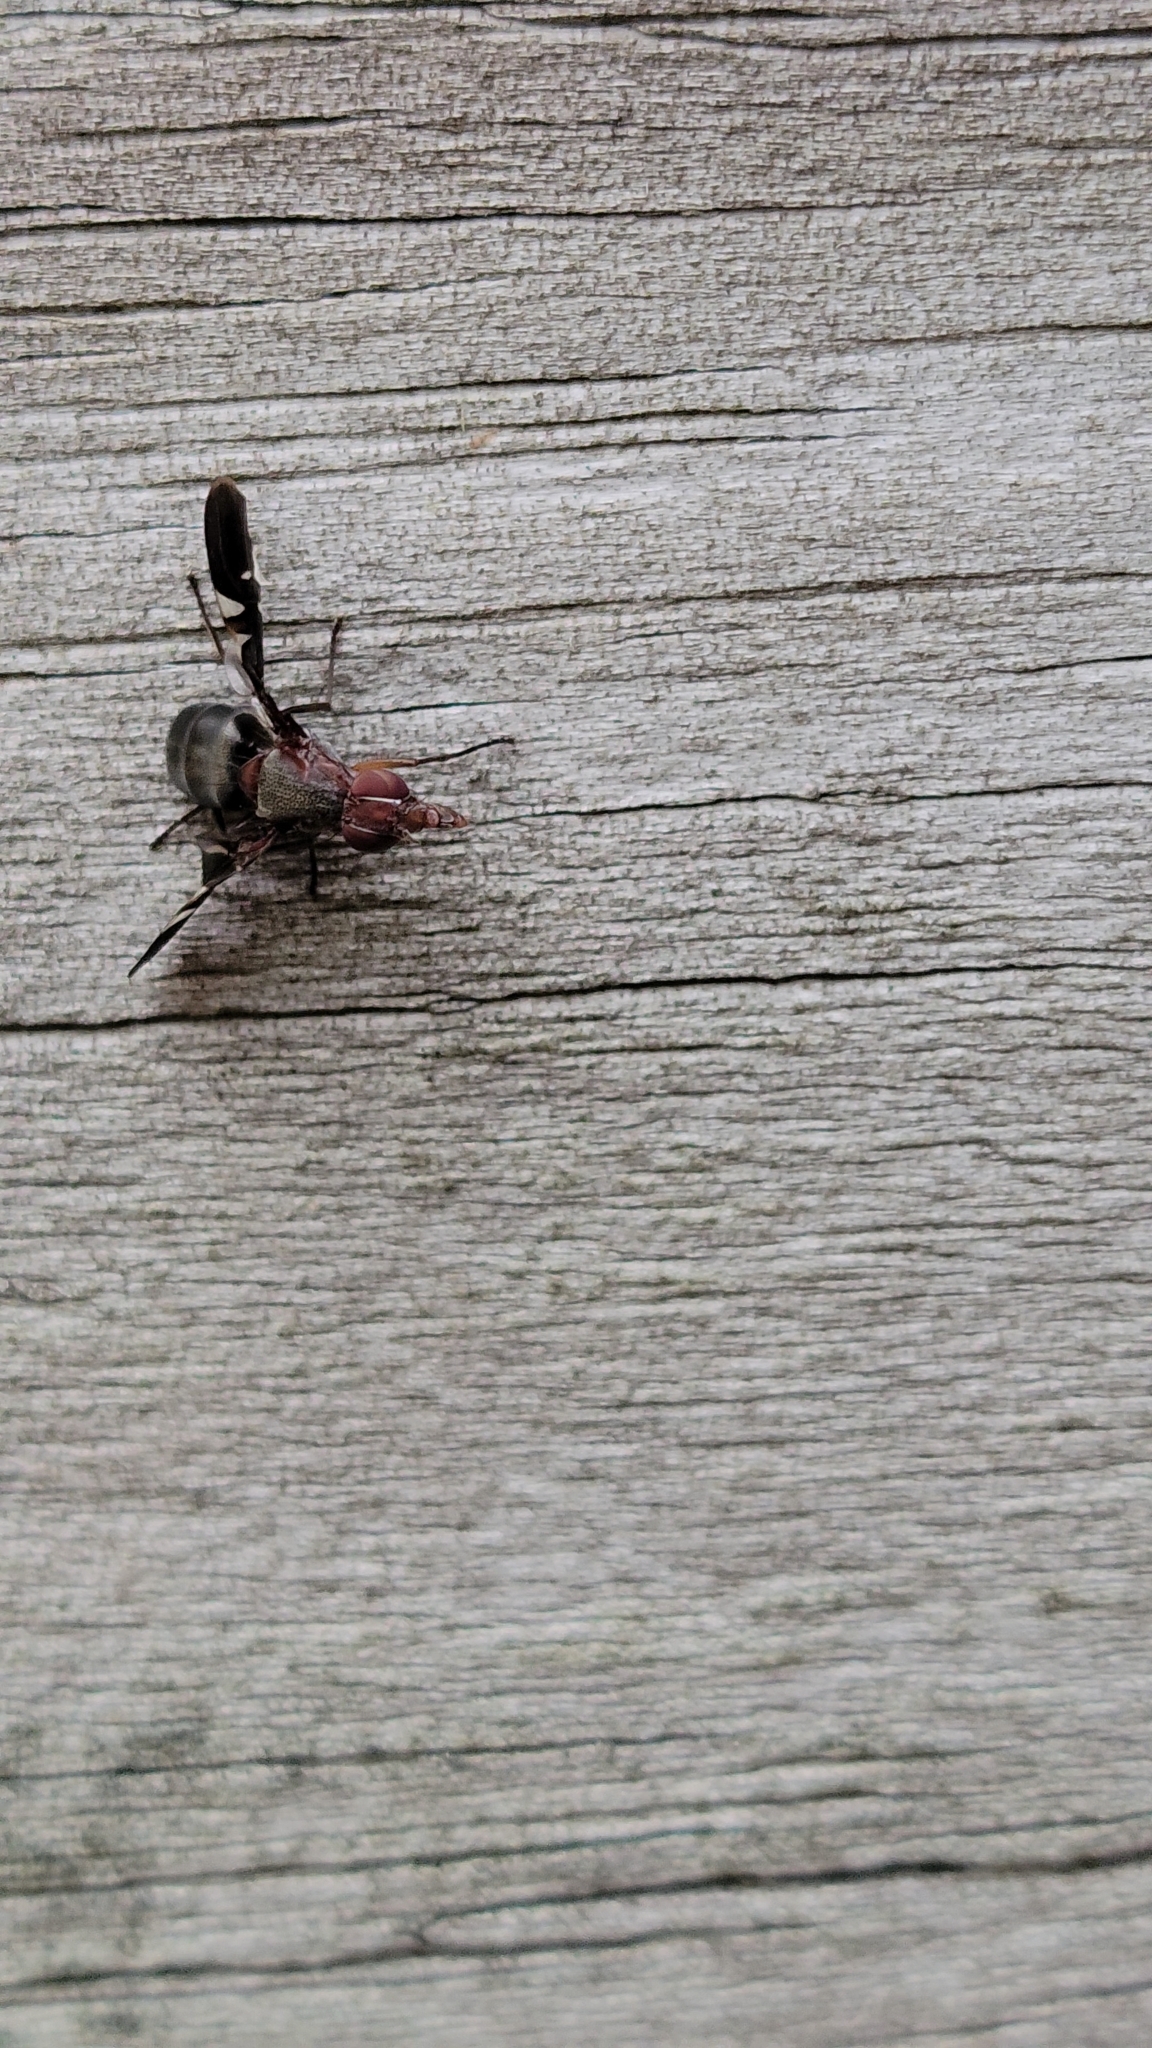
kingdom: Animalia
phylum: Arthropoda
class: Insecta
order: Diptera
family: Ulidiidae
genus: Delphinia
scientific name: Delphinia picta
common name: Common picture-winged fly
